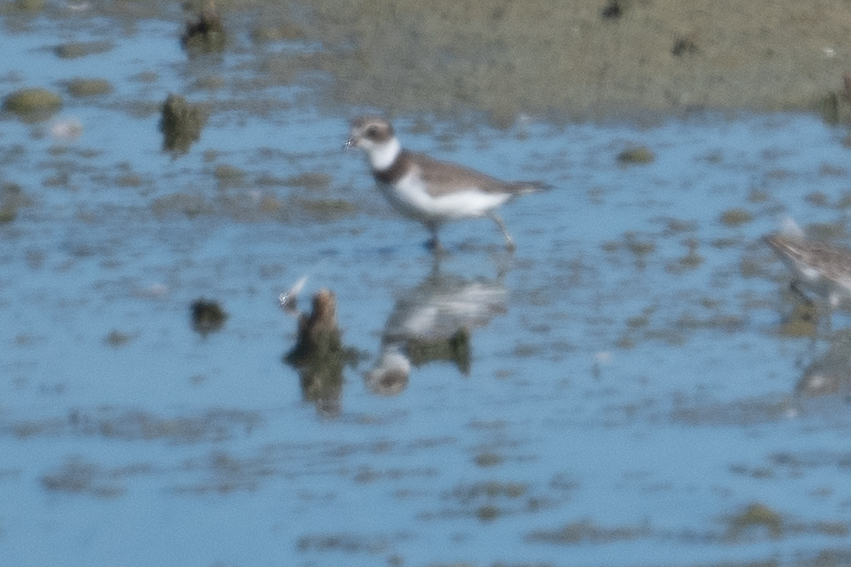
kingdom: Animalia
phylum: Chordata
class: Aves
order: Charadriiformes
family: Charadriidae
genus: Charadrius
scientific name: Charadrius semipalmatus
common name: Semipalmated plover
